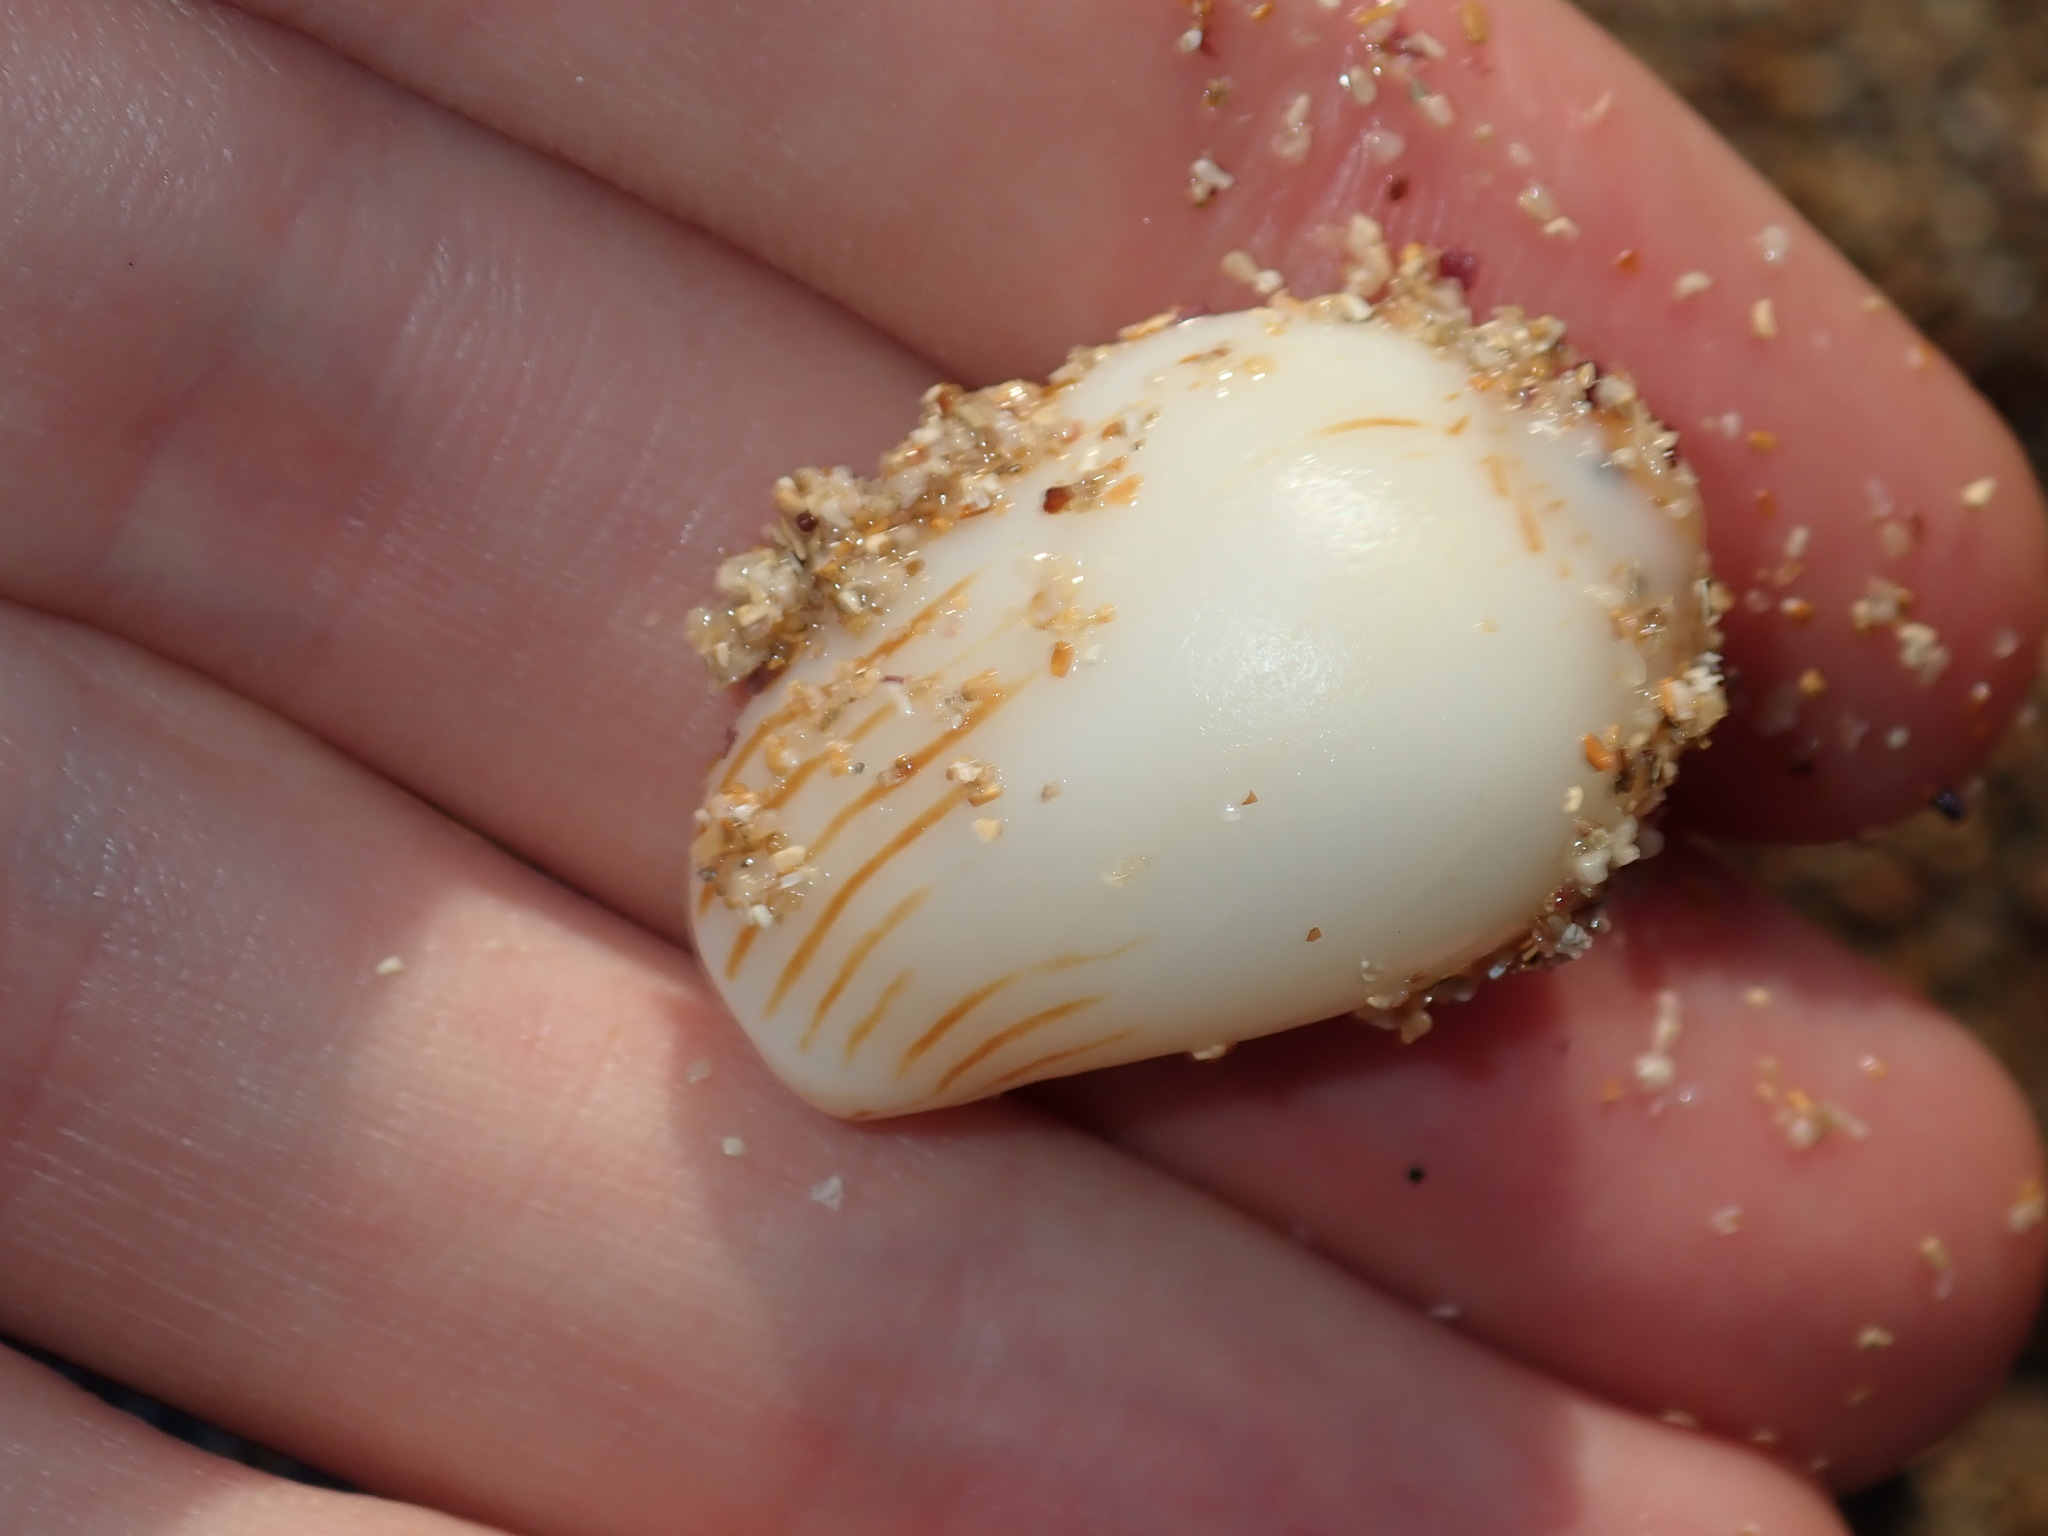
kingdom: Animalia
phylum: Mollusca
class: Gastropoda
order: Neogastropoda
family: Volutidae
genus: Amoria
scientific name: Amoria zebra
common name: Zebra volute
